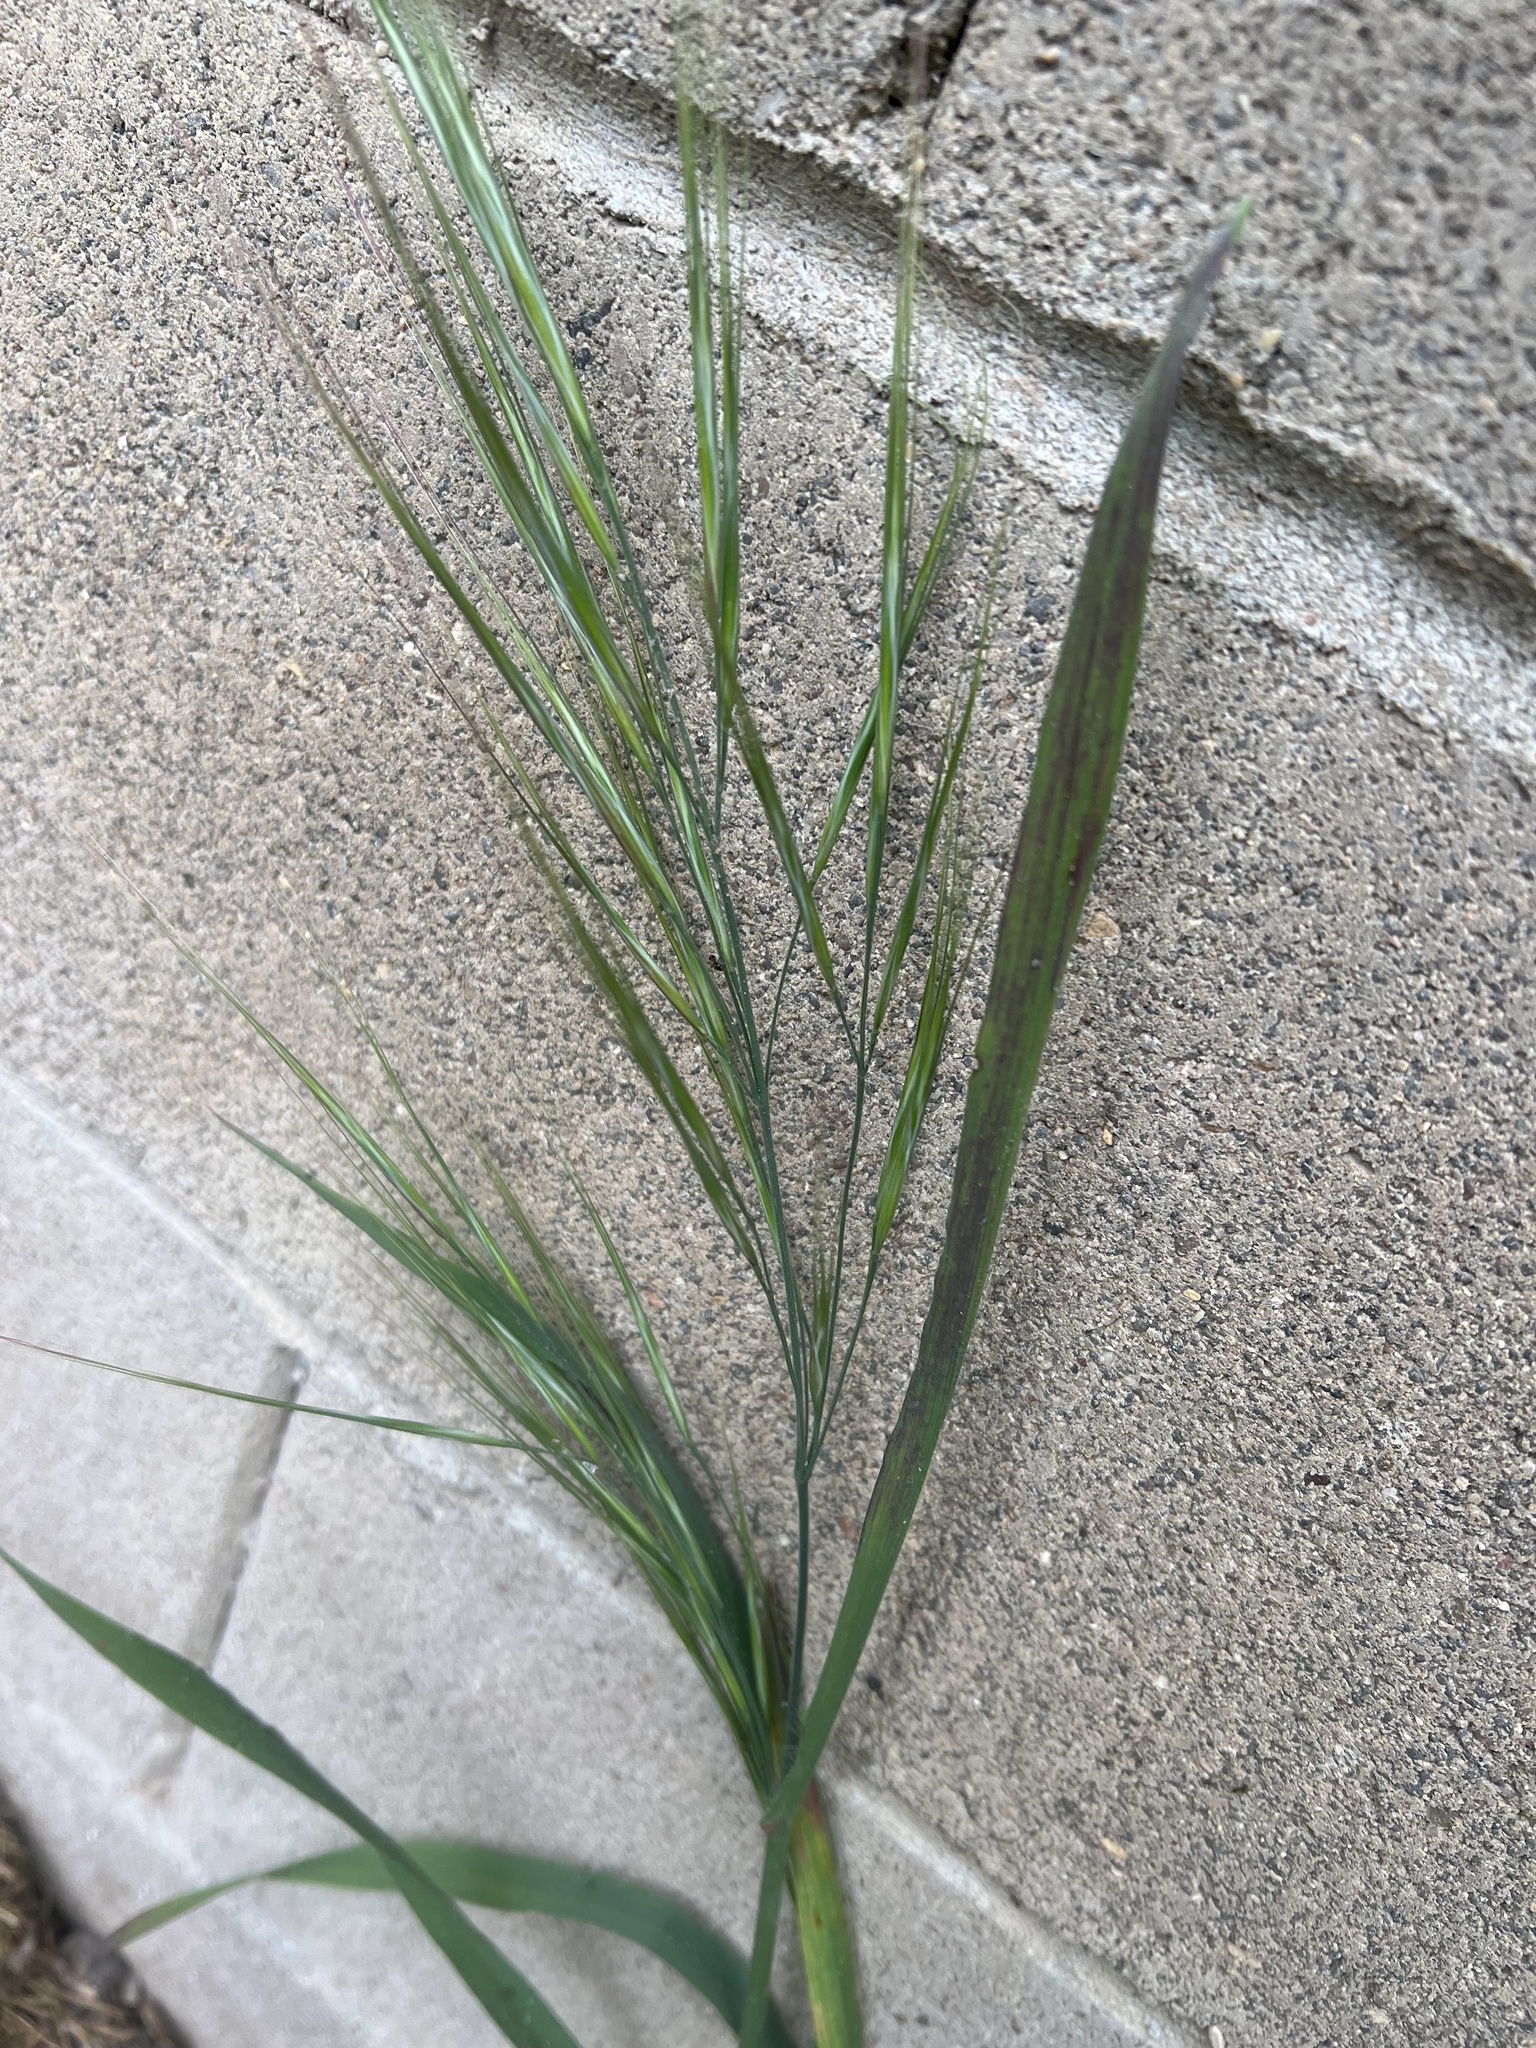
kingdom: Plantae
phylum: Tracheophyta
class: Liliopsida
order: Poales
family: Poaceae
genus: Bromus
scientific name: Bromus diandrus
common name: Ripgut brome
